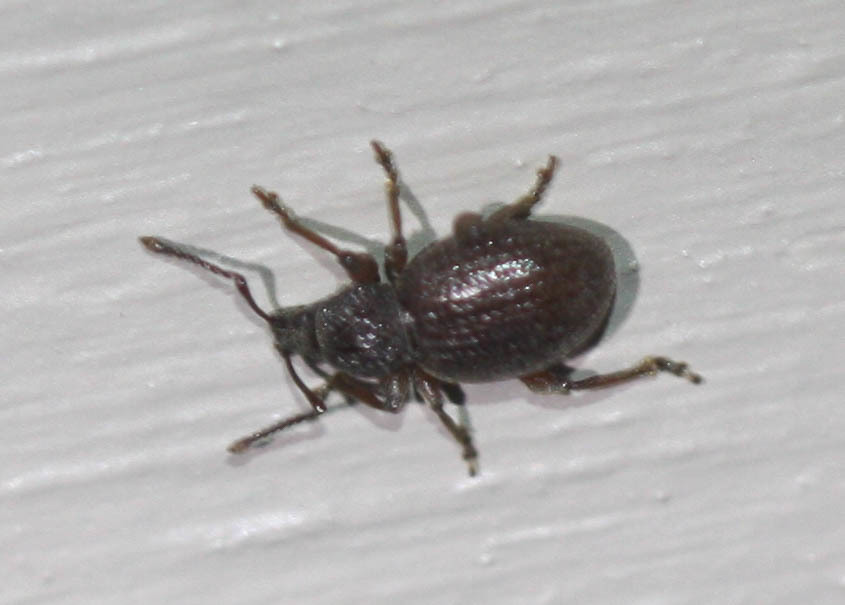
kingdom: Animalia
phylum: Arthropoda
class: Insecta
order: Coleoptera
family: Curculionidae
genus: Otiorhynchus
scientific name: Otiorhynchus ovatus
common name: Strawberry root weevil
